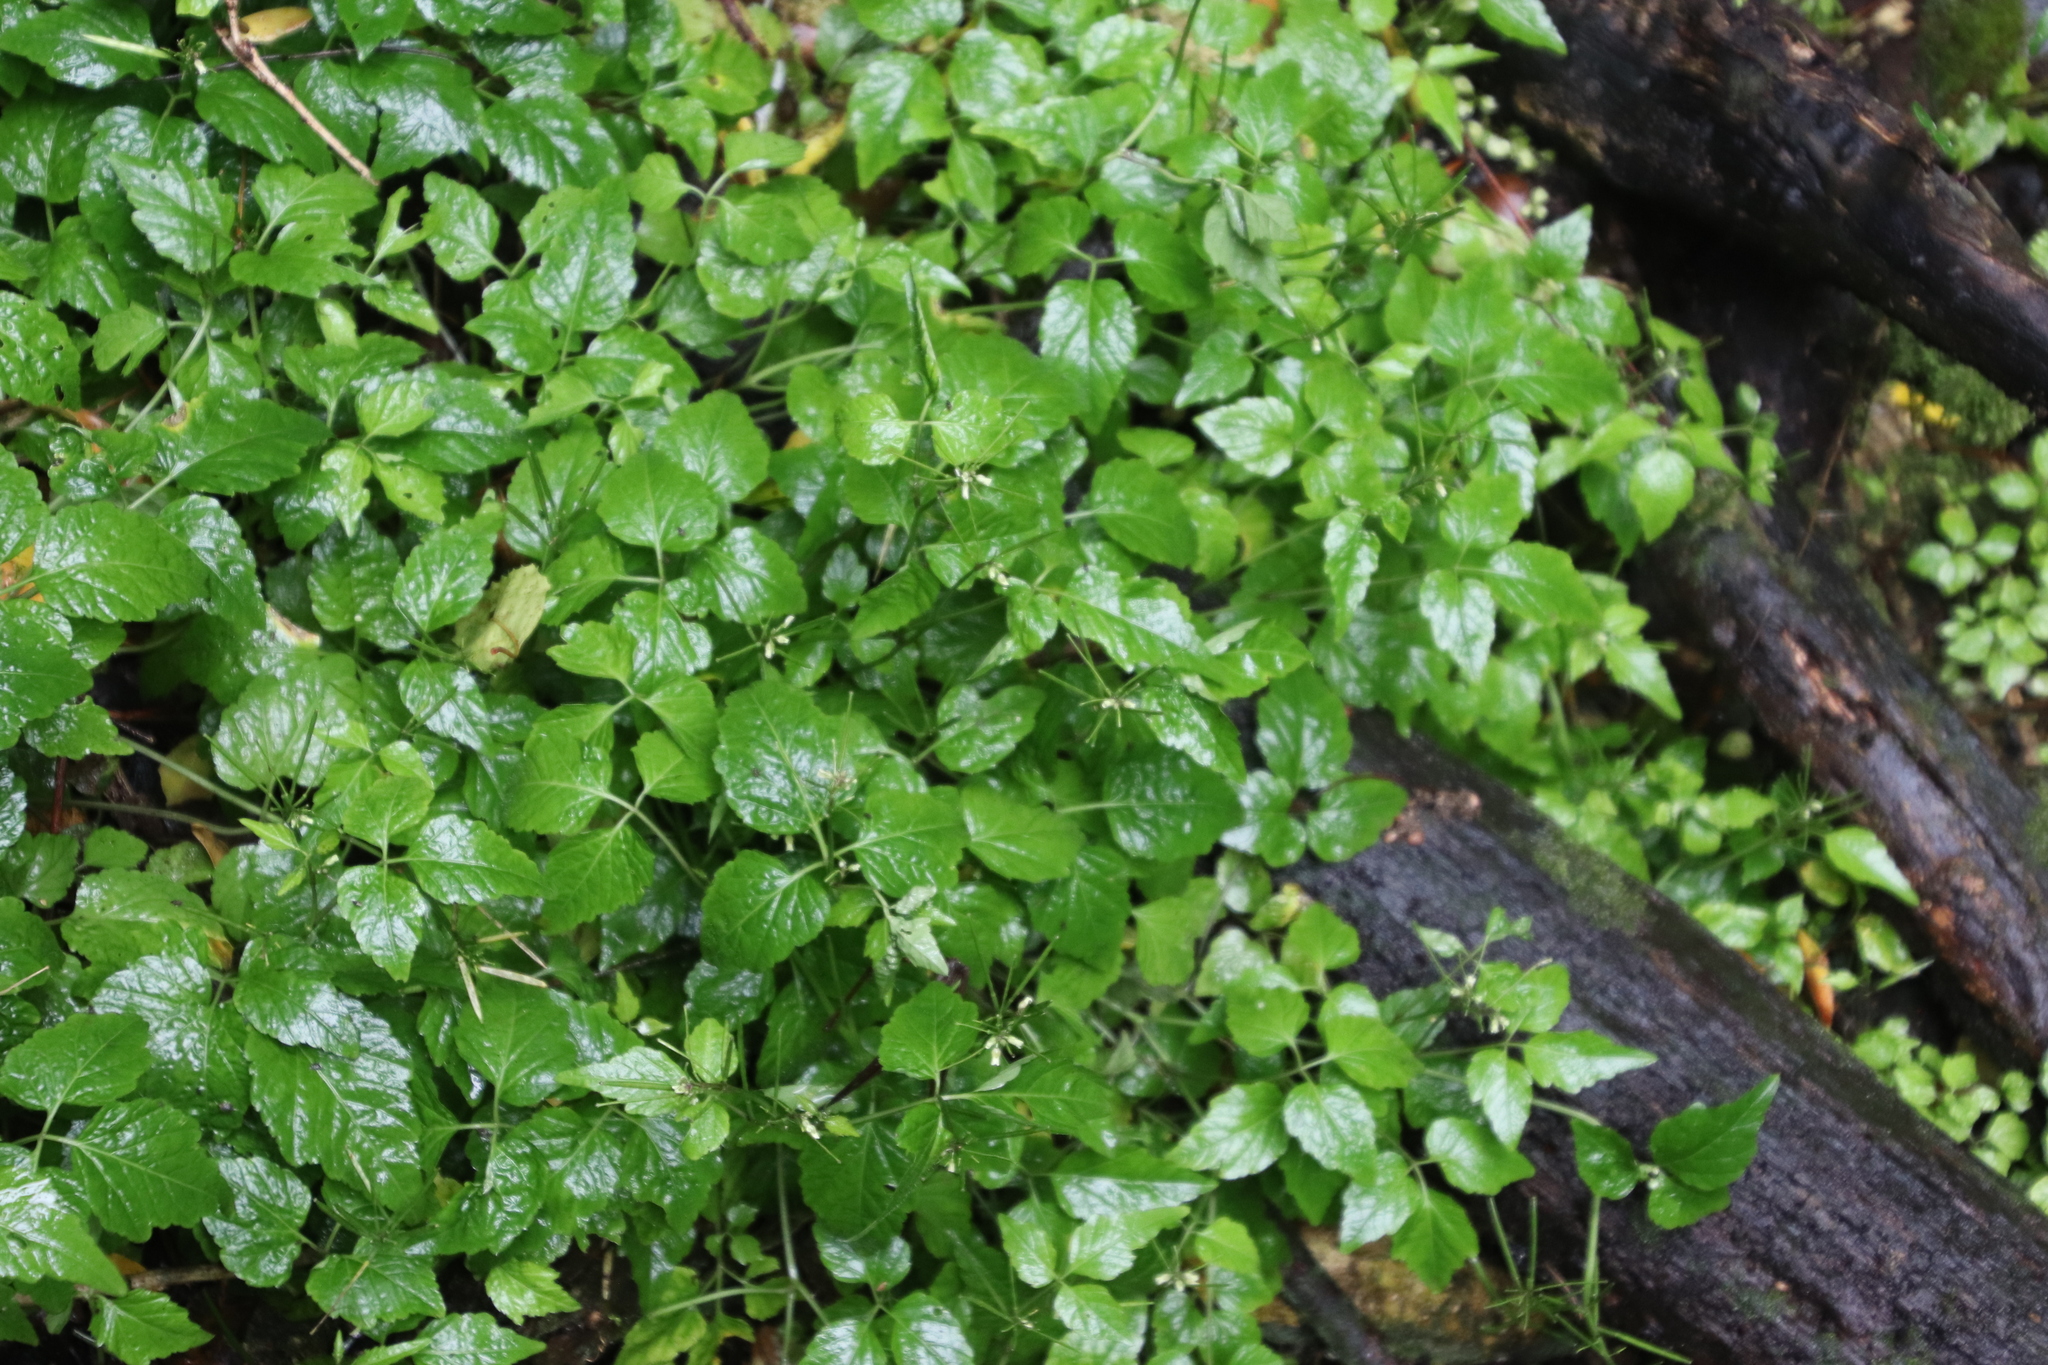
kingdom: Plantae
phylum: Tracheophyta
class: Magnoliopsida
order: Brassicales
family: Brassicaceae
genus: Cardamine
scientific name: Cardamine africana
